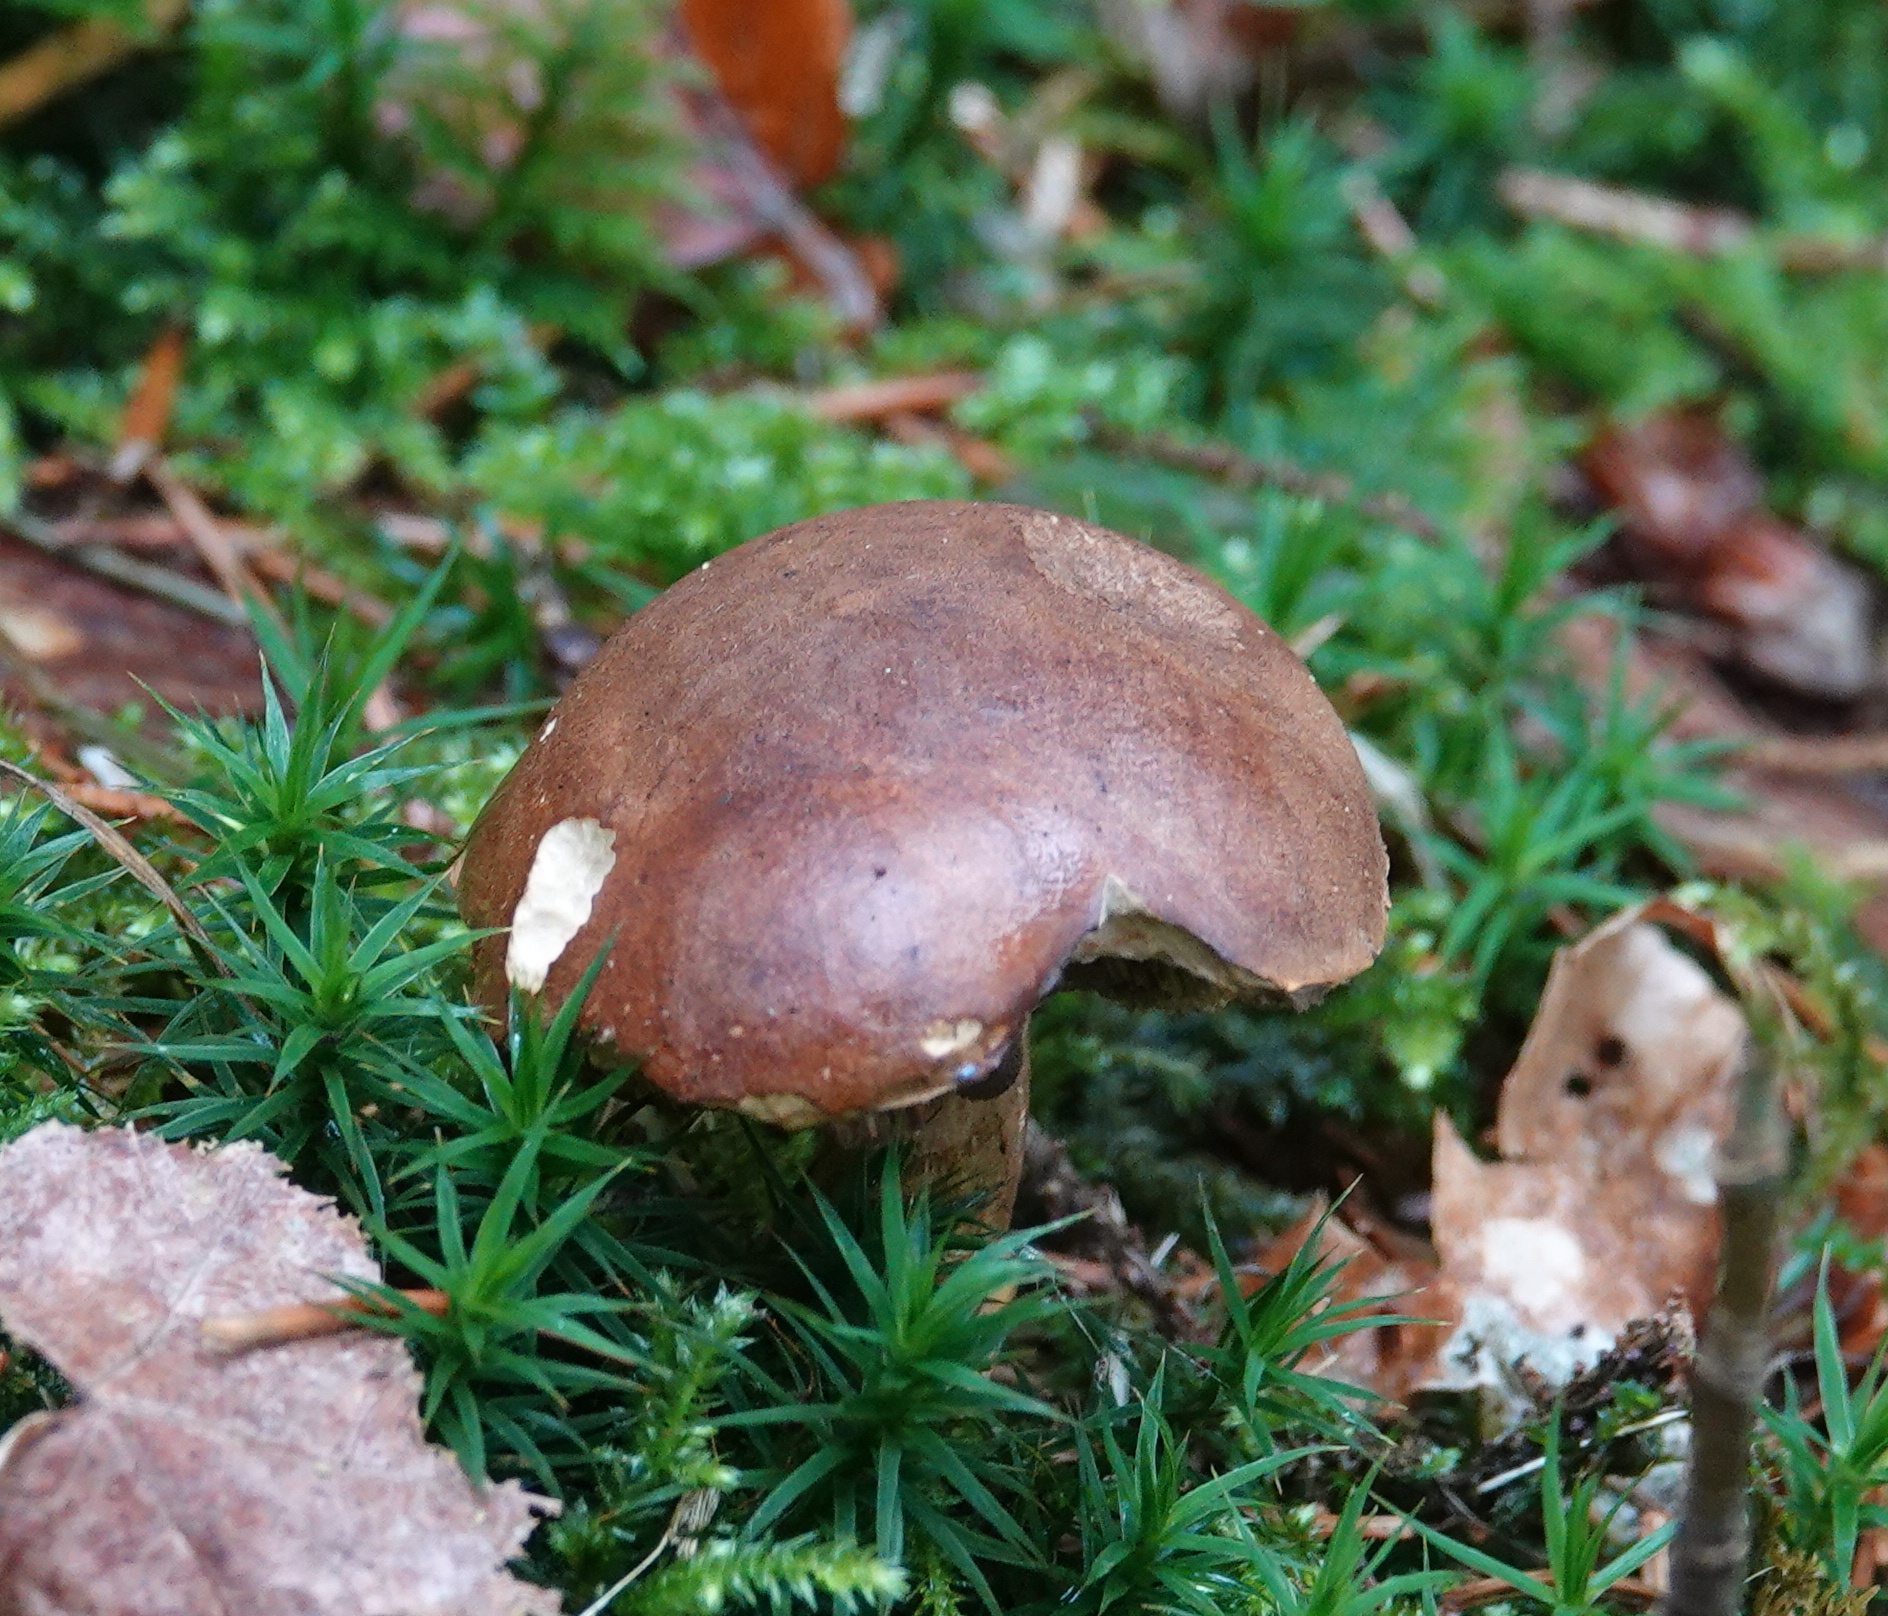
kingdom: Fungi
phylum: Basidiomycota
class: Agaricomycetes
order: Boletales
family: Boletaceae
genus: Imleria
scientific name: Imleria badia
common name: Bay bolete
